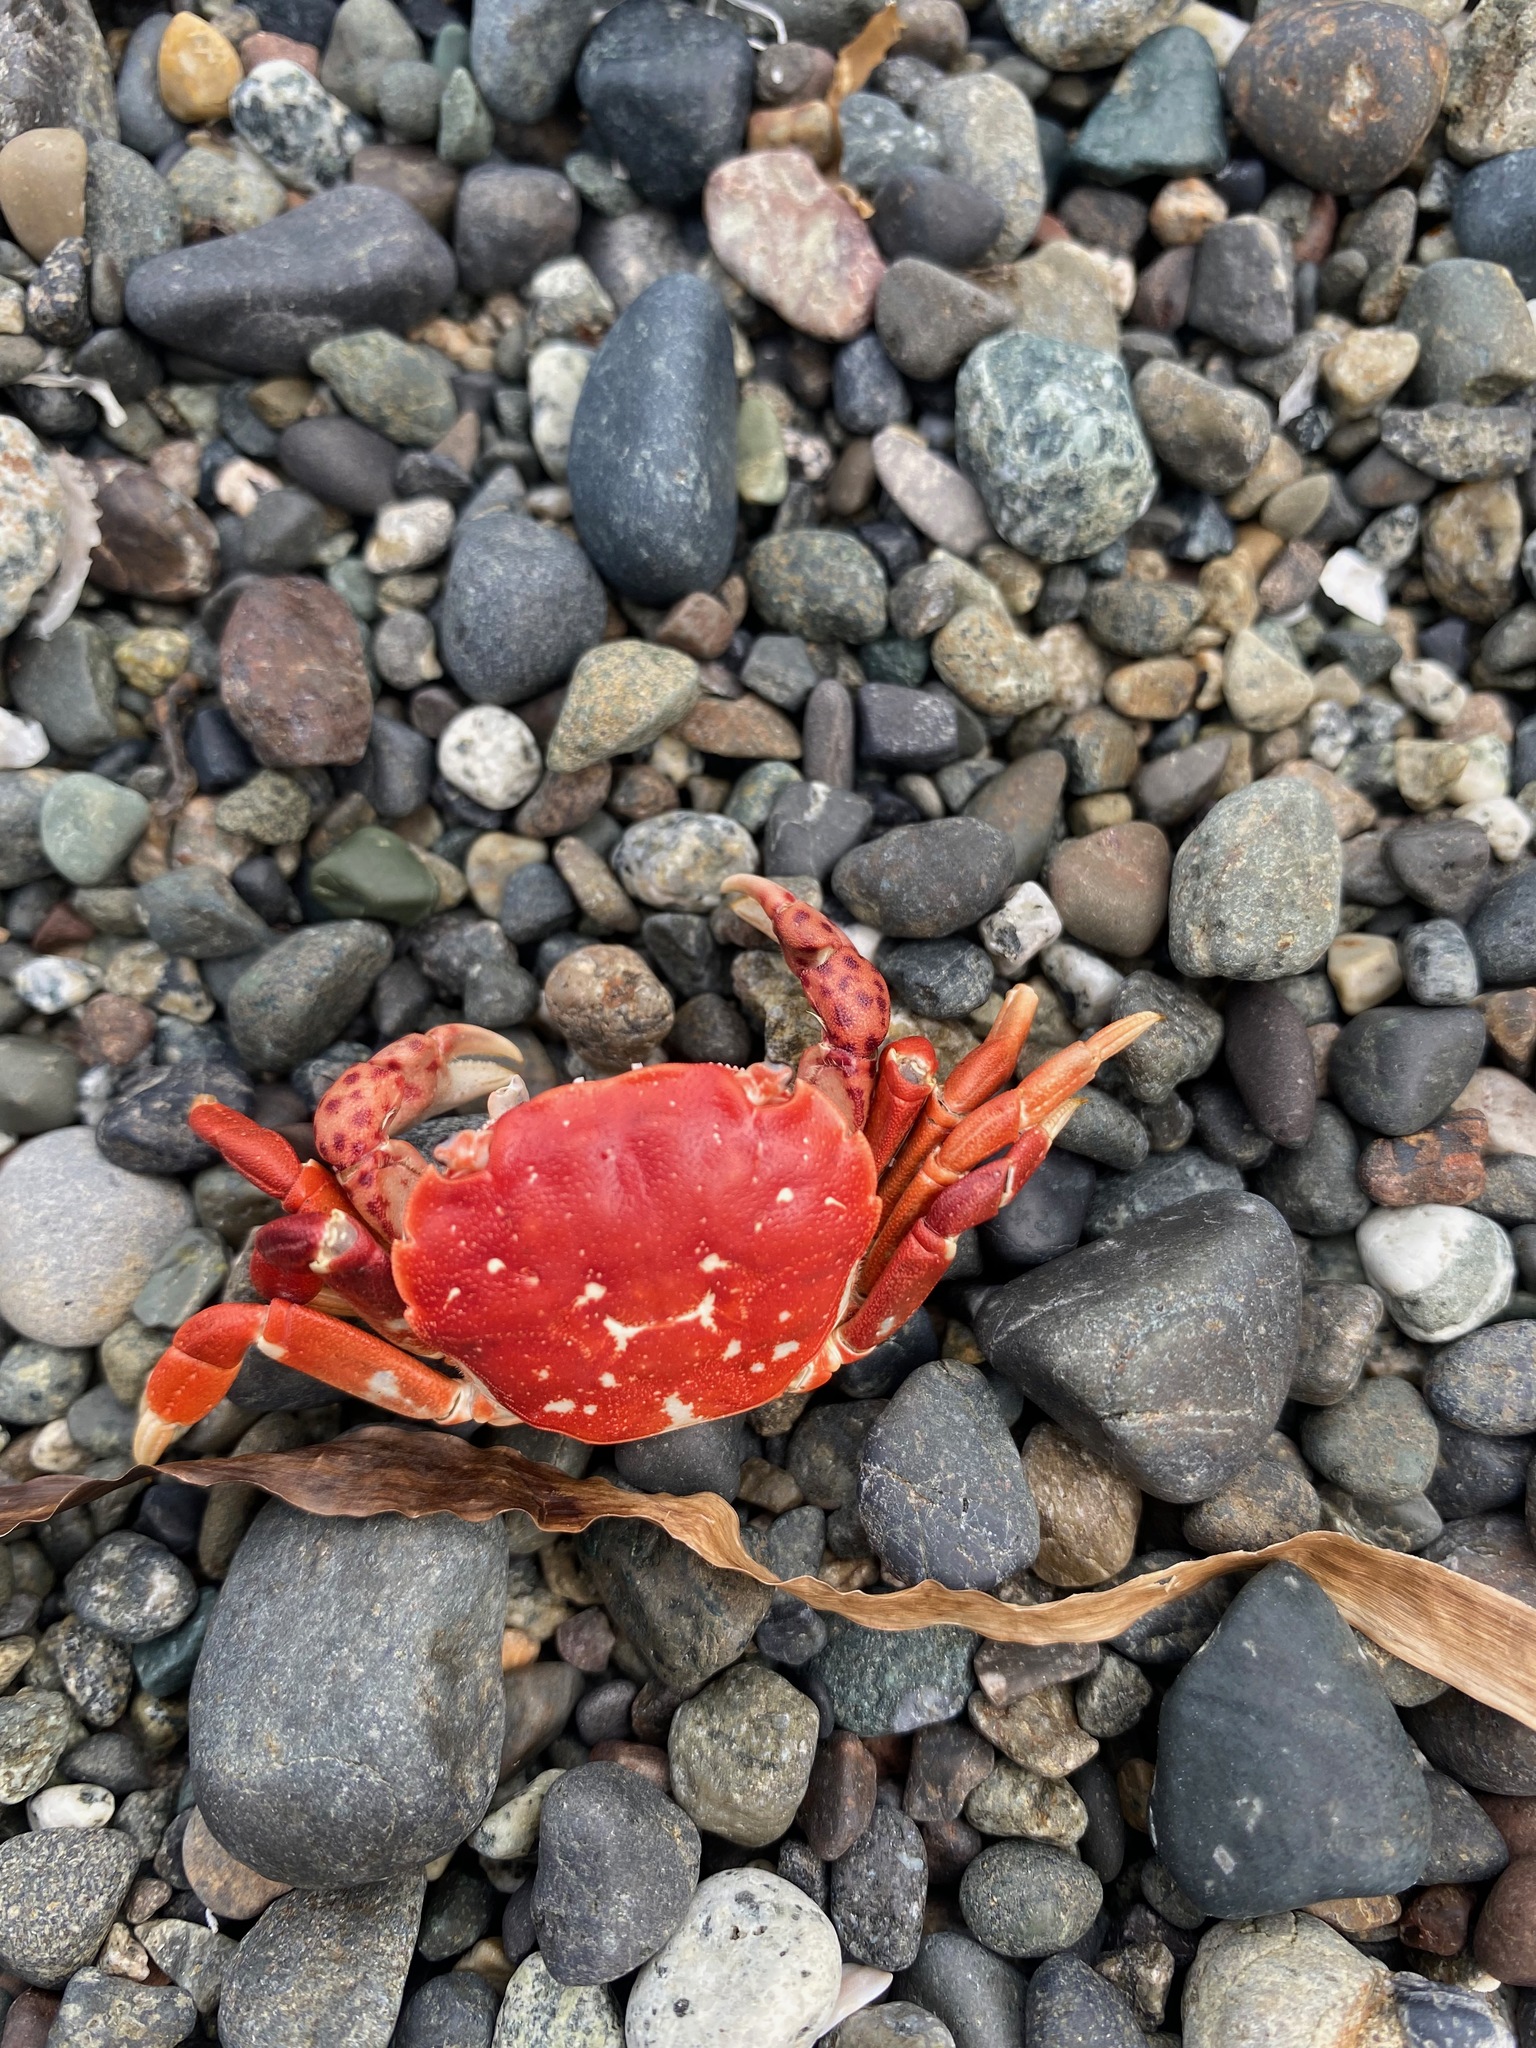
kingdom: Animalia
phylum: Arthropoda
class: Malacostraca
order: Decapoda
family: Varunidae
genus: Hemigrapsus
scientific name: Hemigrapsus nudus
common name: Purple shore crab
